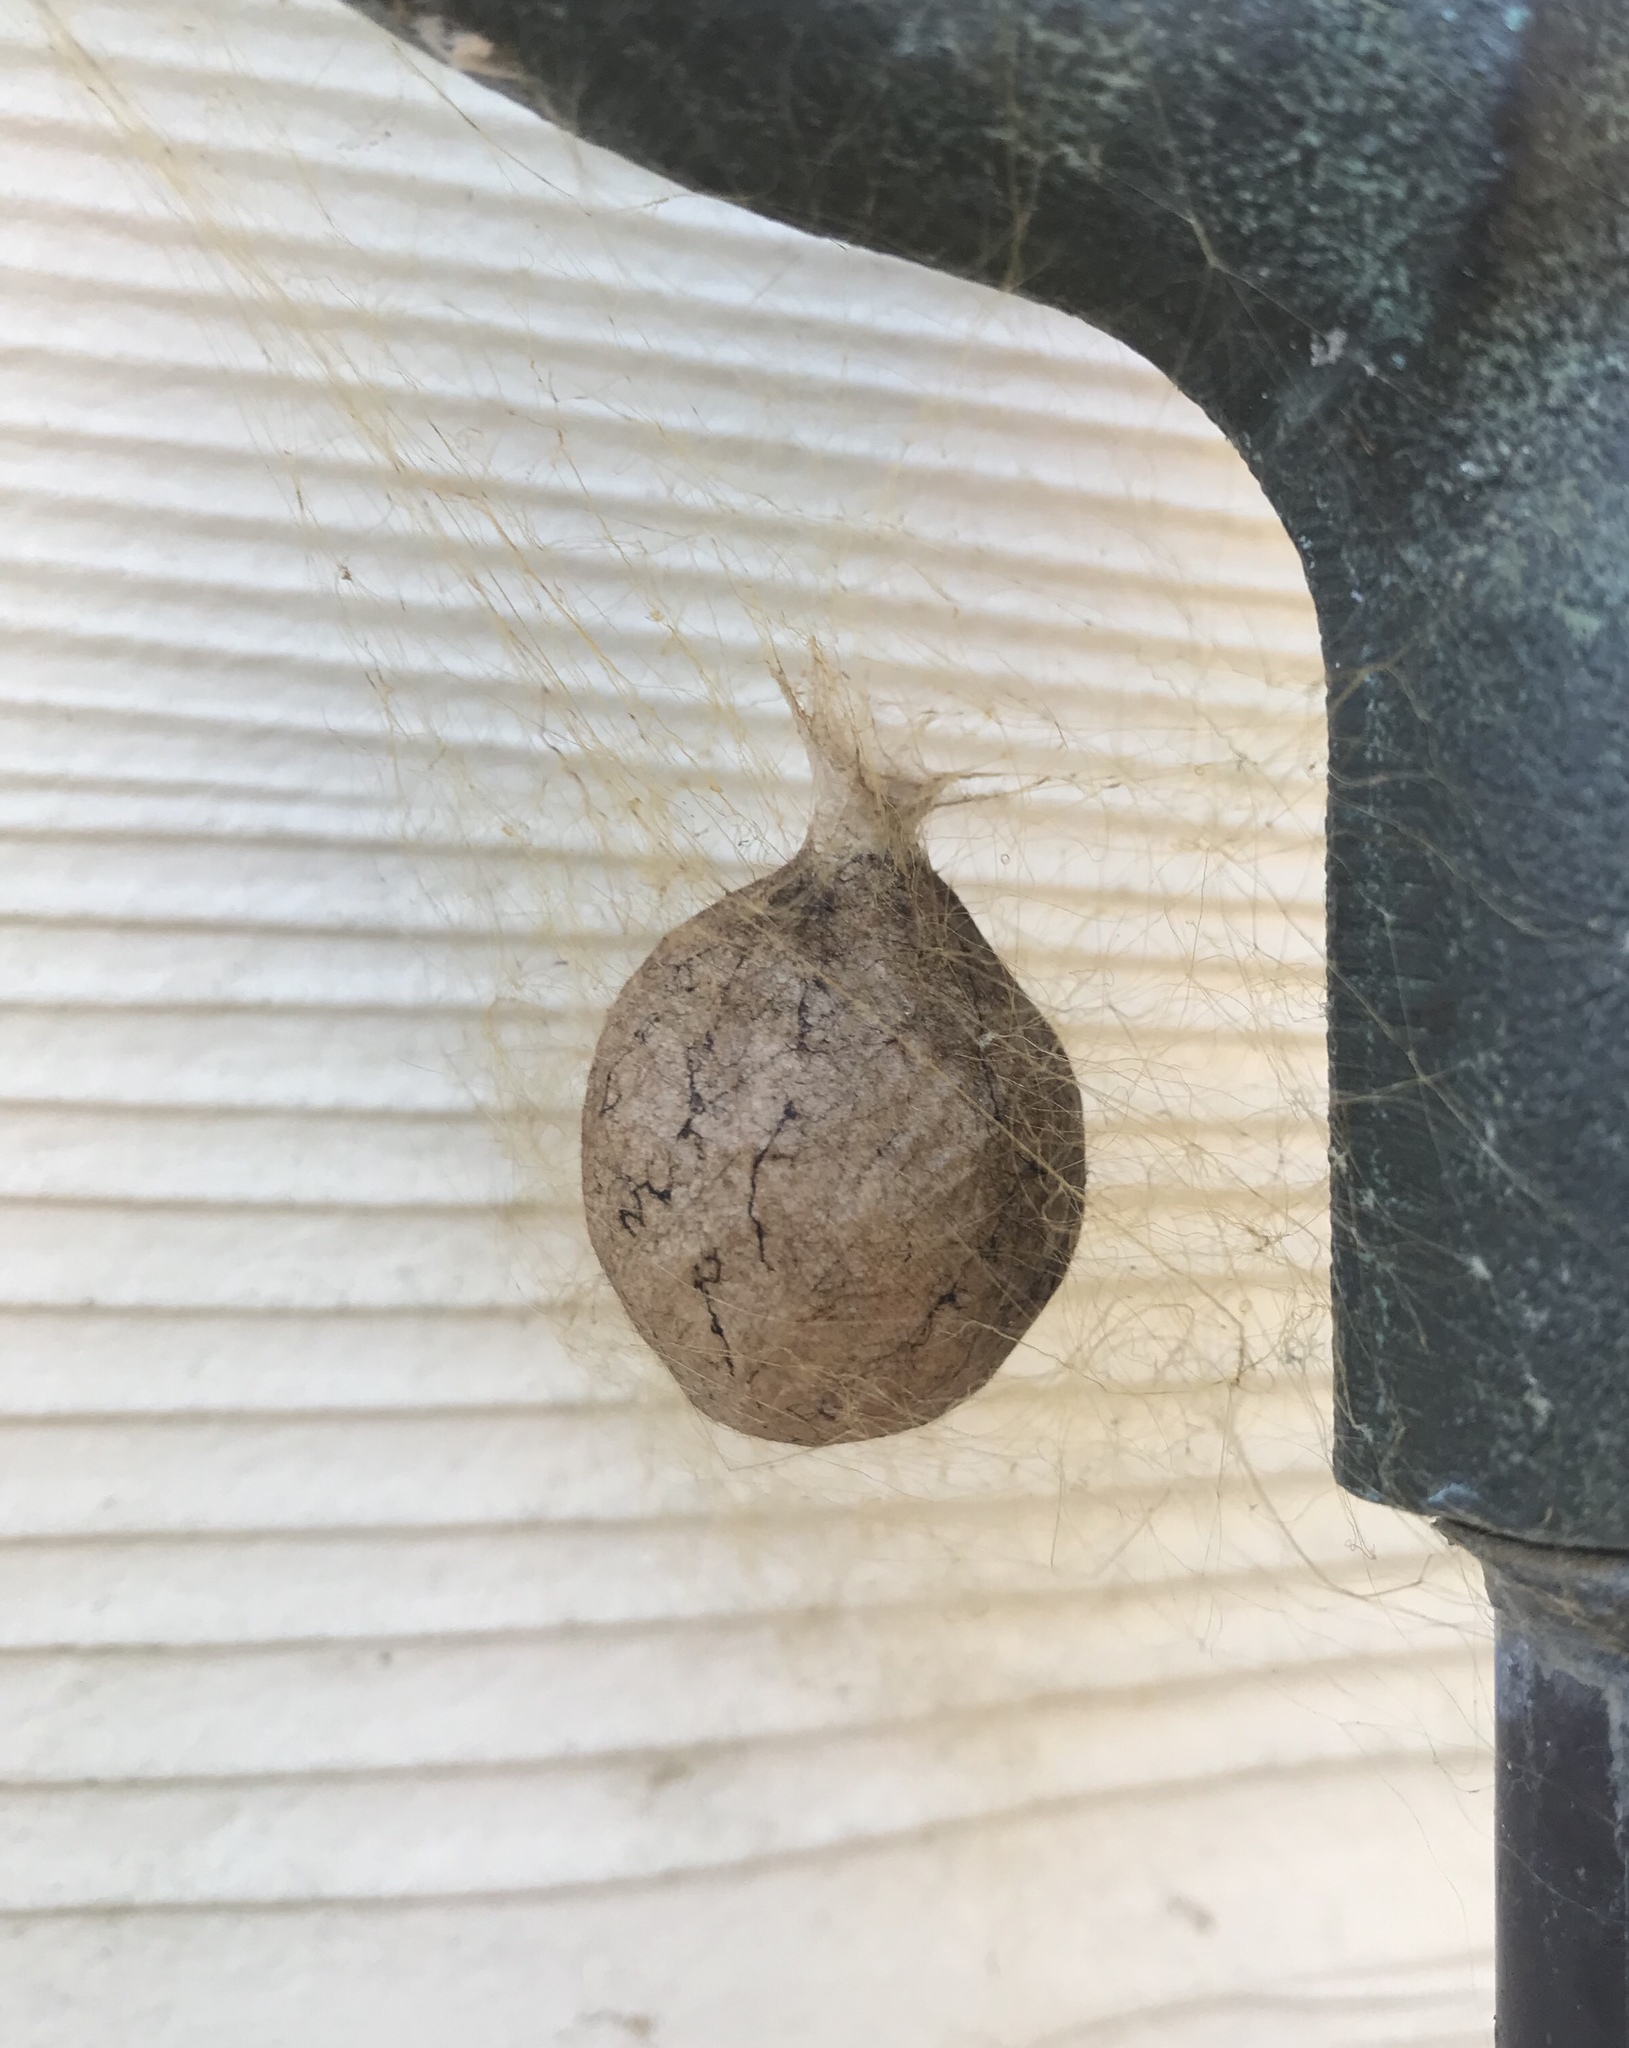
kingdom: Animalia
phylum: Arthropoda
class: Arachnida
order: Araneae
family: Araneidae
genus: Argiope
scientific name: Argiope aurantia
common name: Orb weavers
